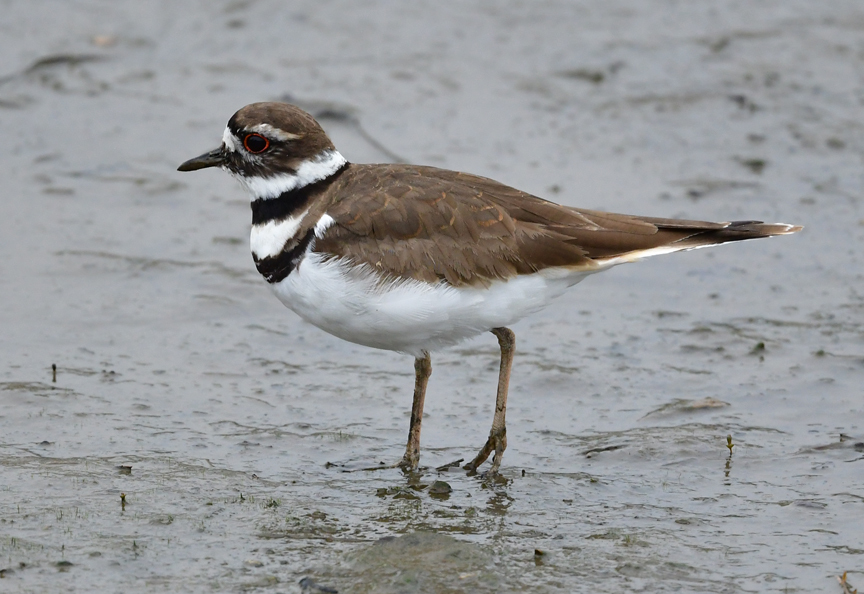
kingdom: Animalia
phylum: Chordata
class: Aves
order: Charadriiformes
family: Charadriidae
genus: Charadrius
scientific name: Charadrius vociferus
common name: Killdeer
